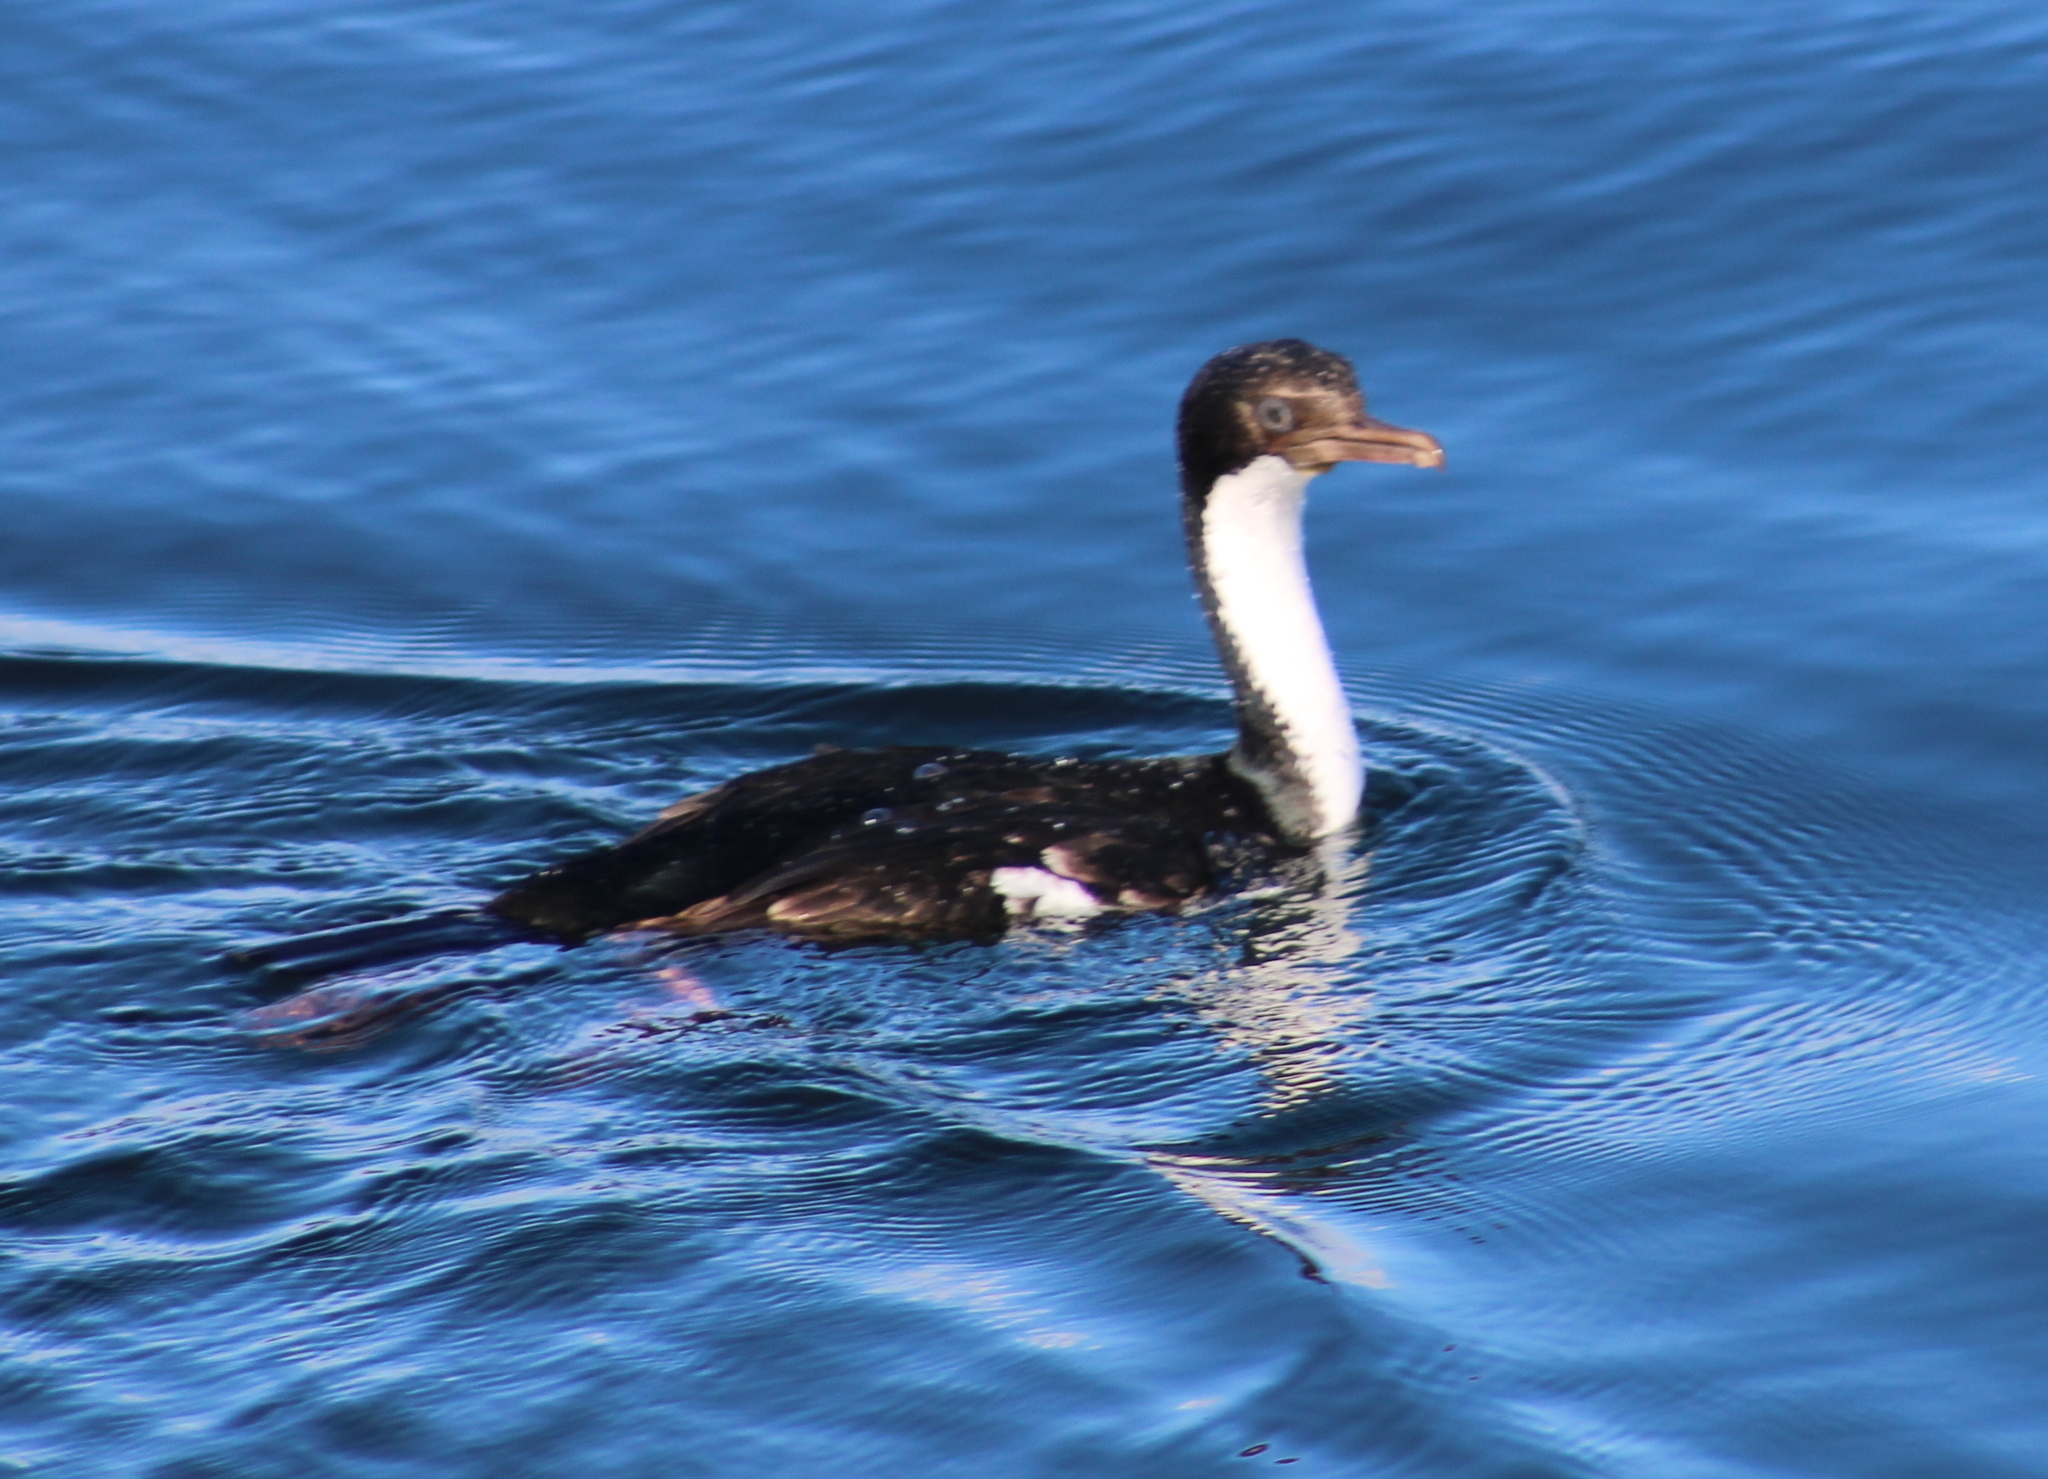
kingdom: Animalia
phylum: Chordata
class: Aves
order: Suliformes
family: Phalacrocoracidae
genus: Leucocarbo
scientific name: Leucocarbo albiventer
